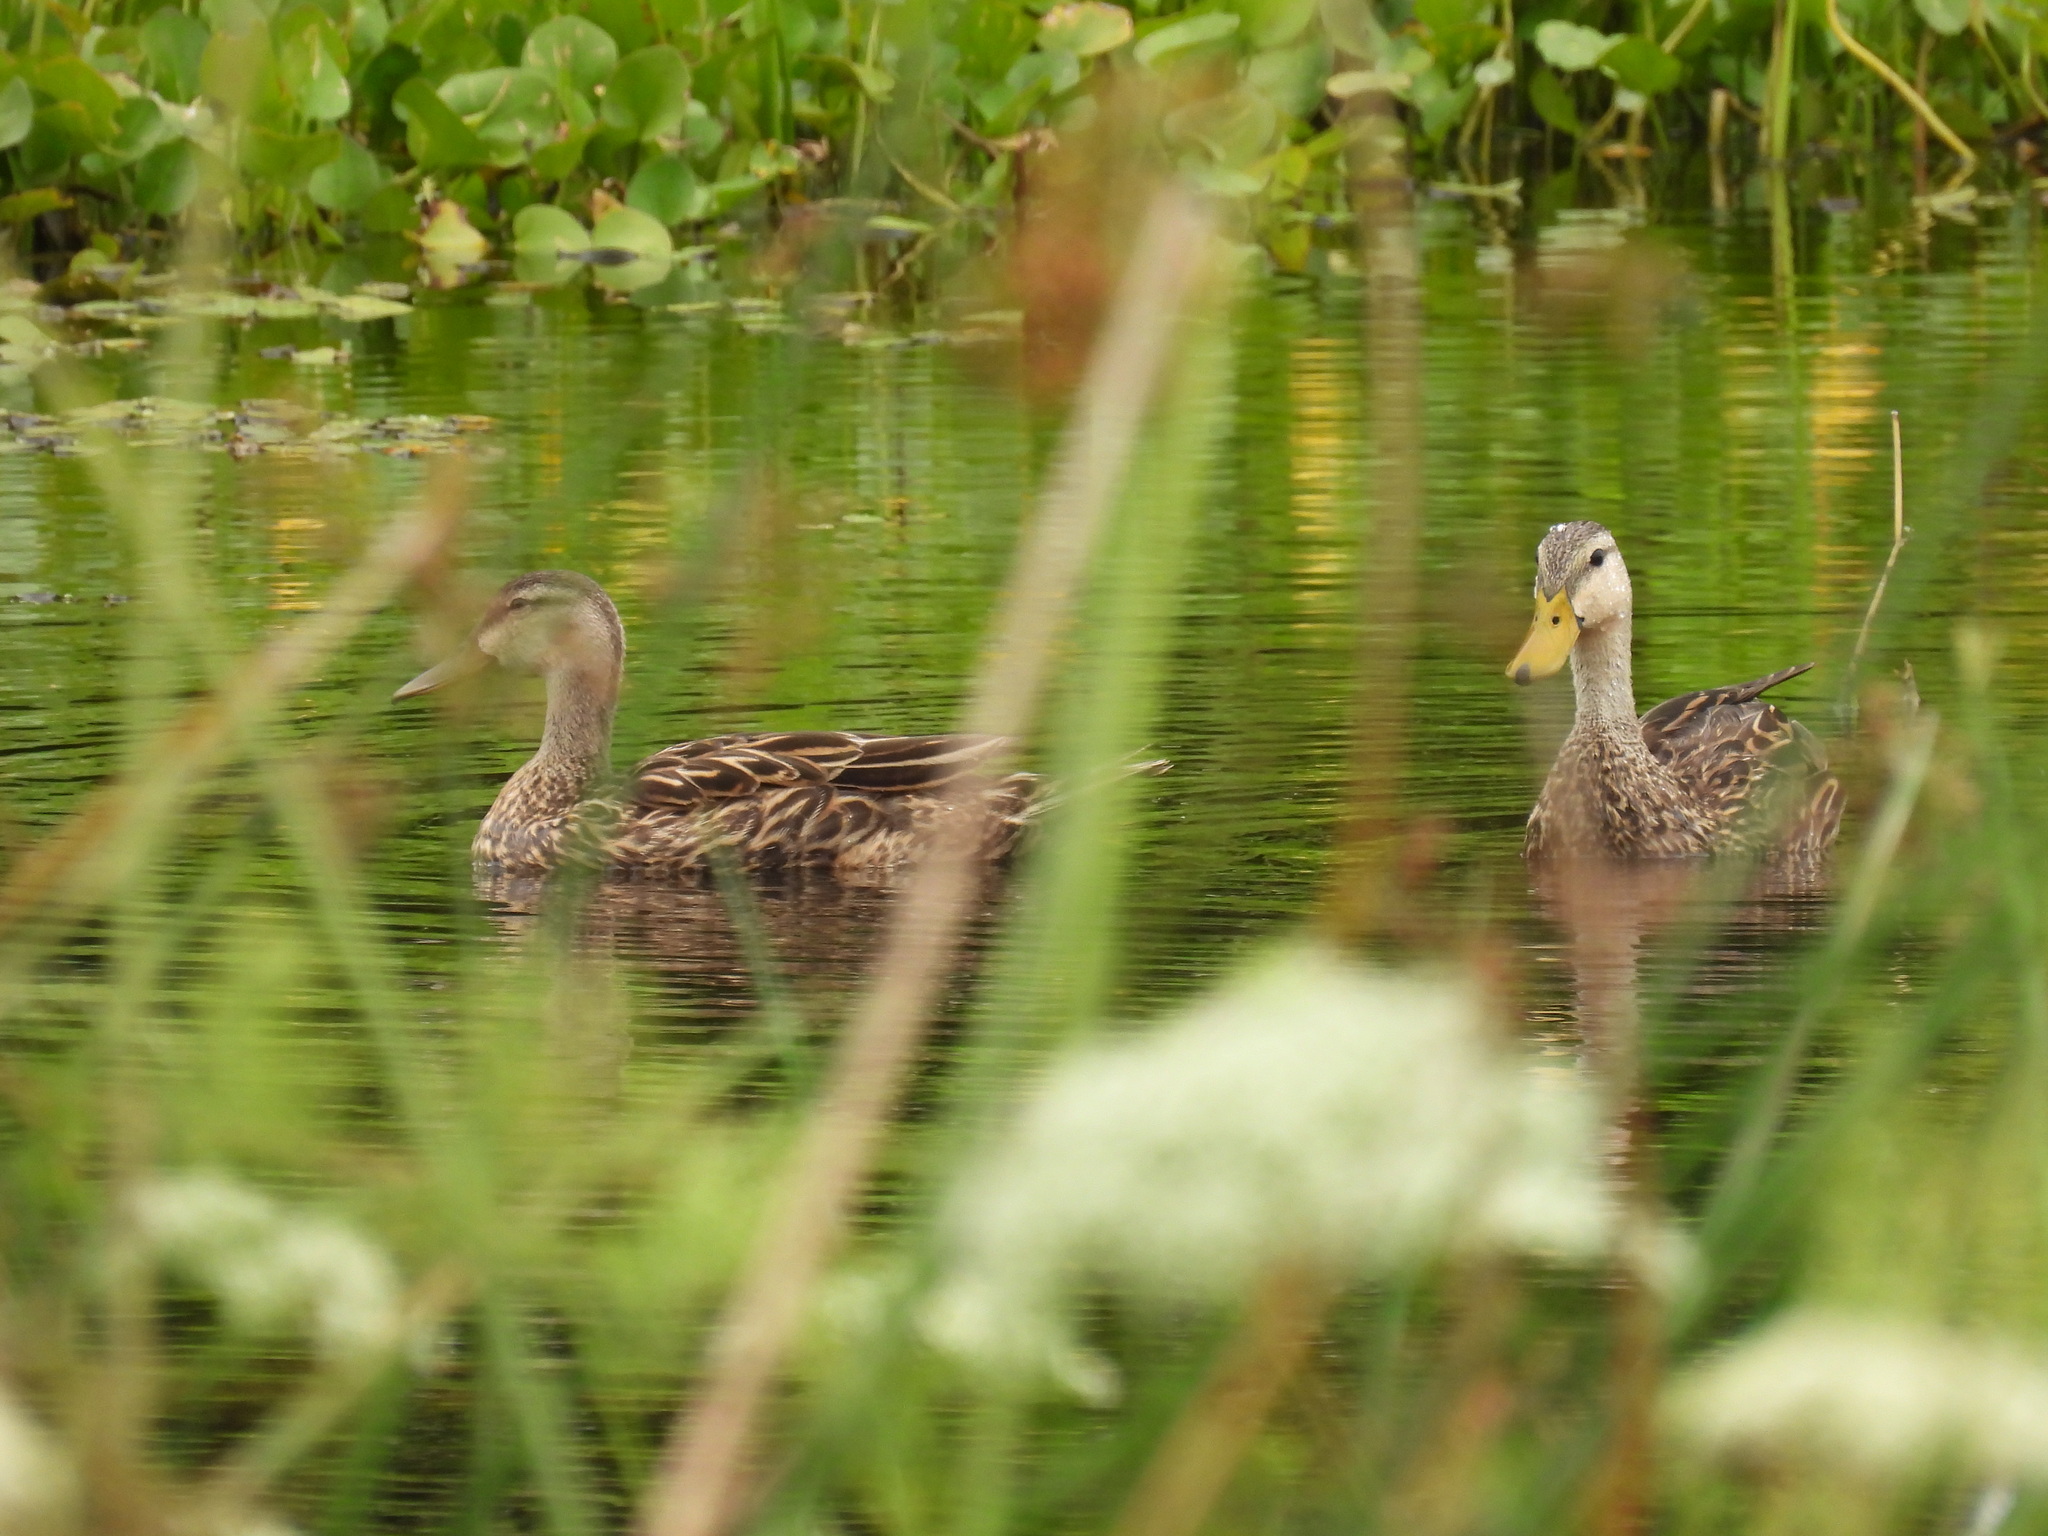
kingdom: Animalia
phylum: Chordata
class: Aves
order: Anseriformes
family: Anatidae
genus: Anas
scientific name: Anas fulvigula
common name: Mottled duck
